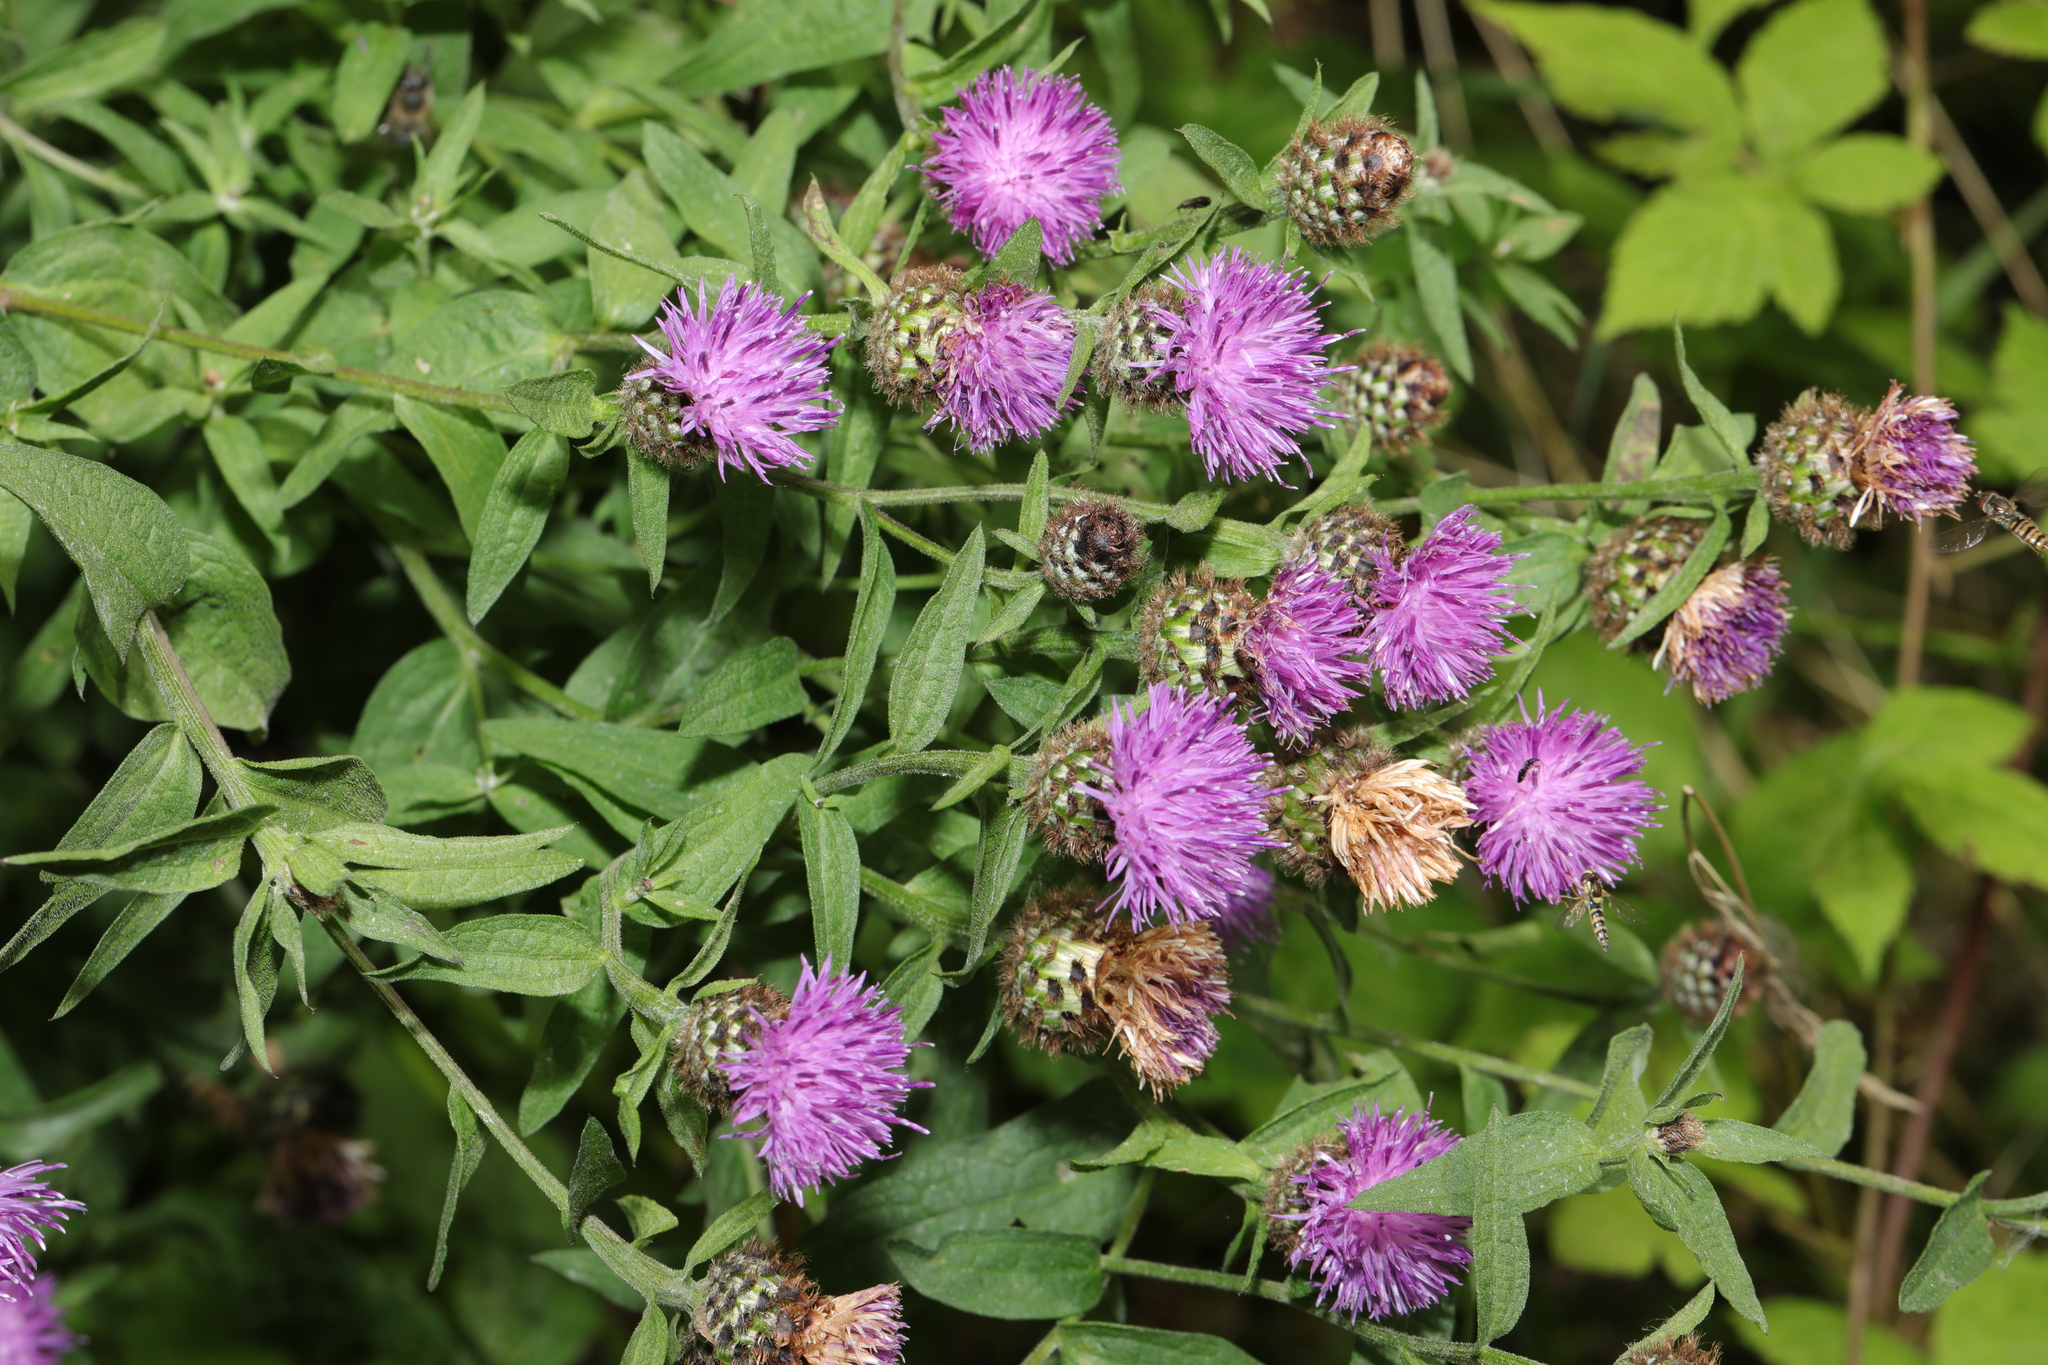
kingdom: Plantae
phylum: Tracheophyta
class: Magnoliopsida
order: Asterales
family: Asteraceae
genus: Centaurea
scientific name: Centaurea nigra
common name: Lesser knapweed
